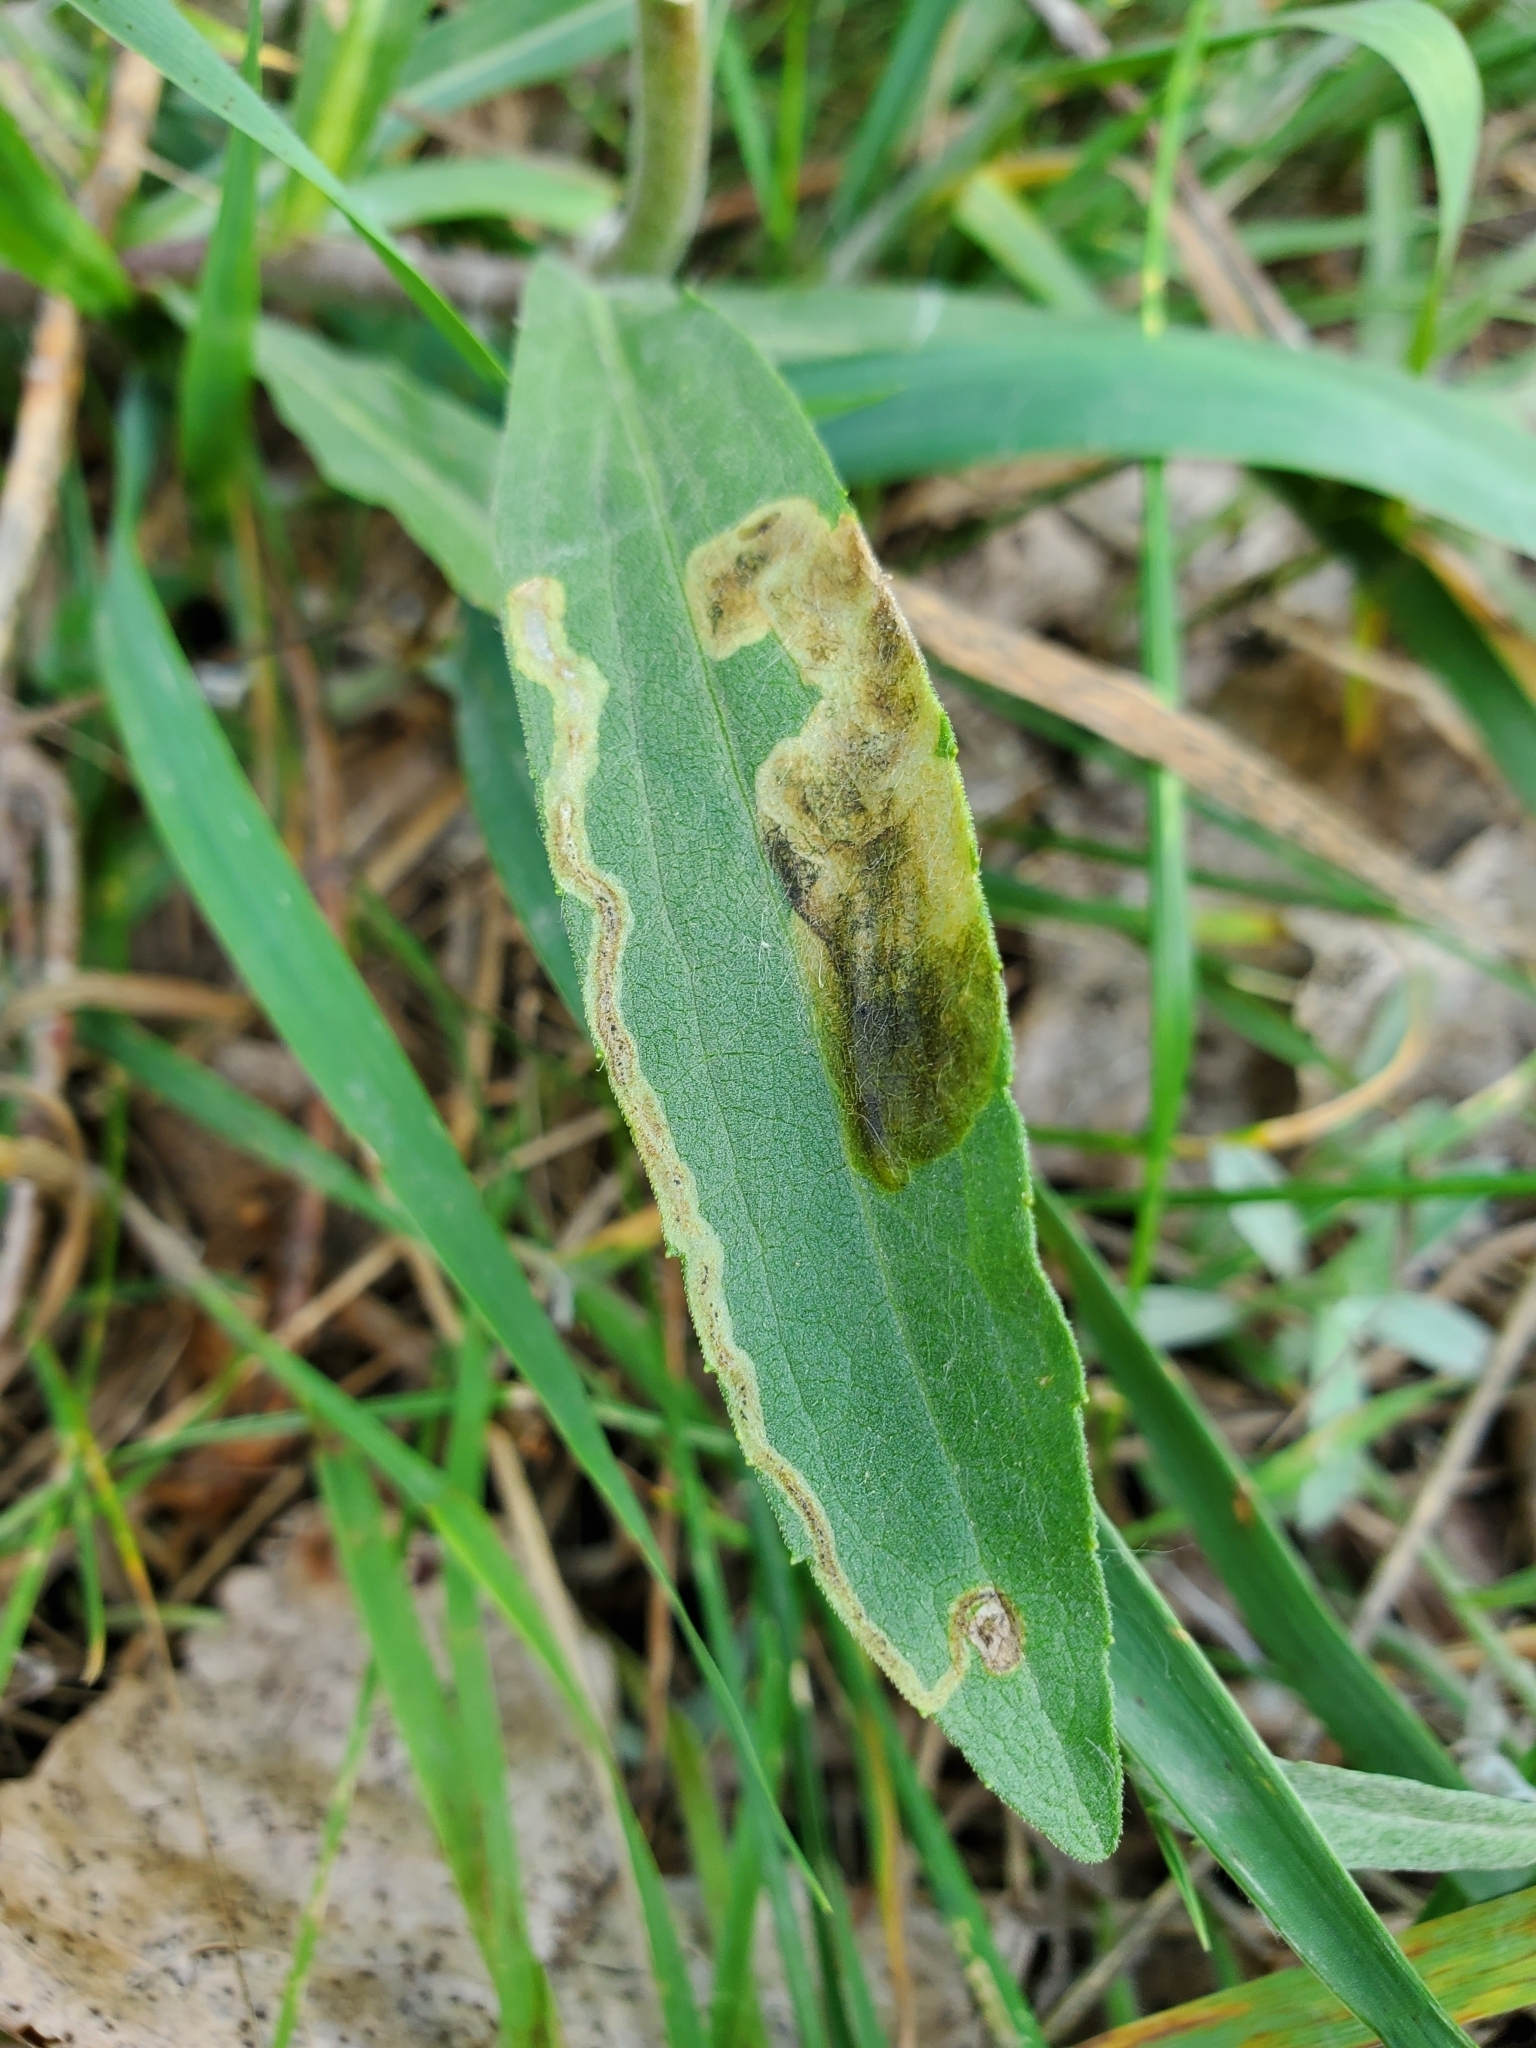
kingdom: Animalia
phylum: Arthropoda
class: Insecta
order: Diptera
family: Agromyzidae
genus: Nemorimyza
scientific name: Nemorimyza posticata
